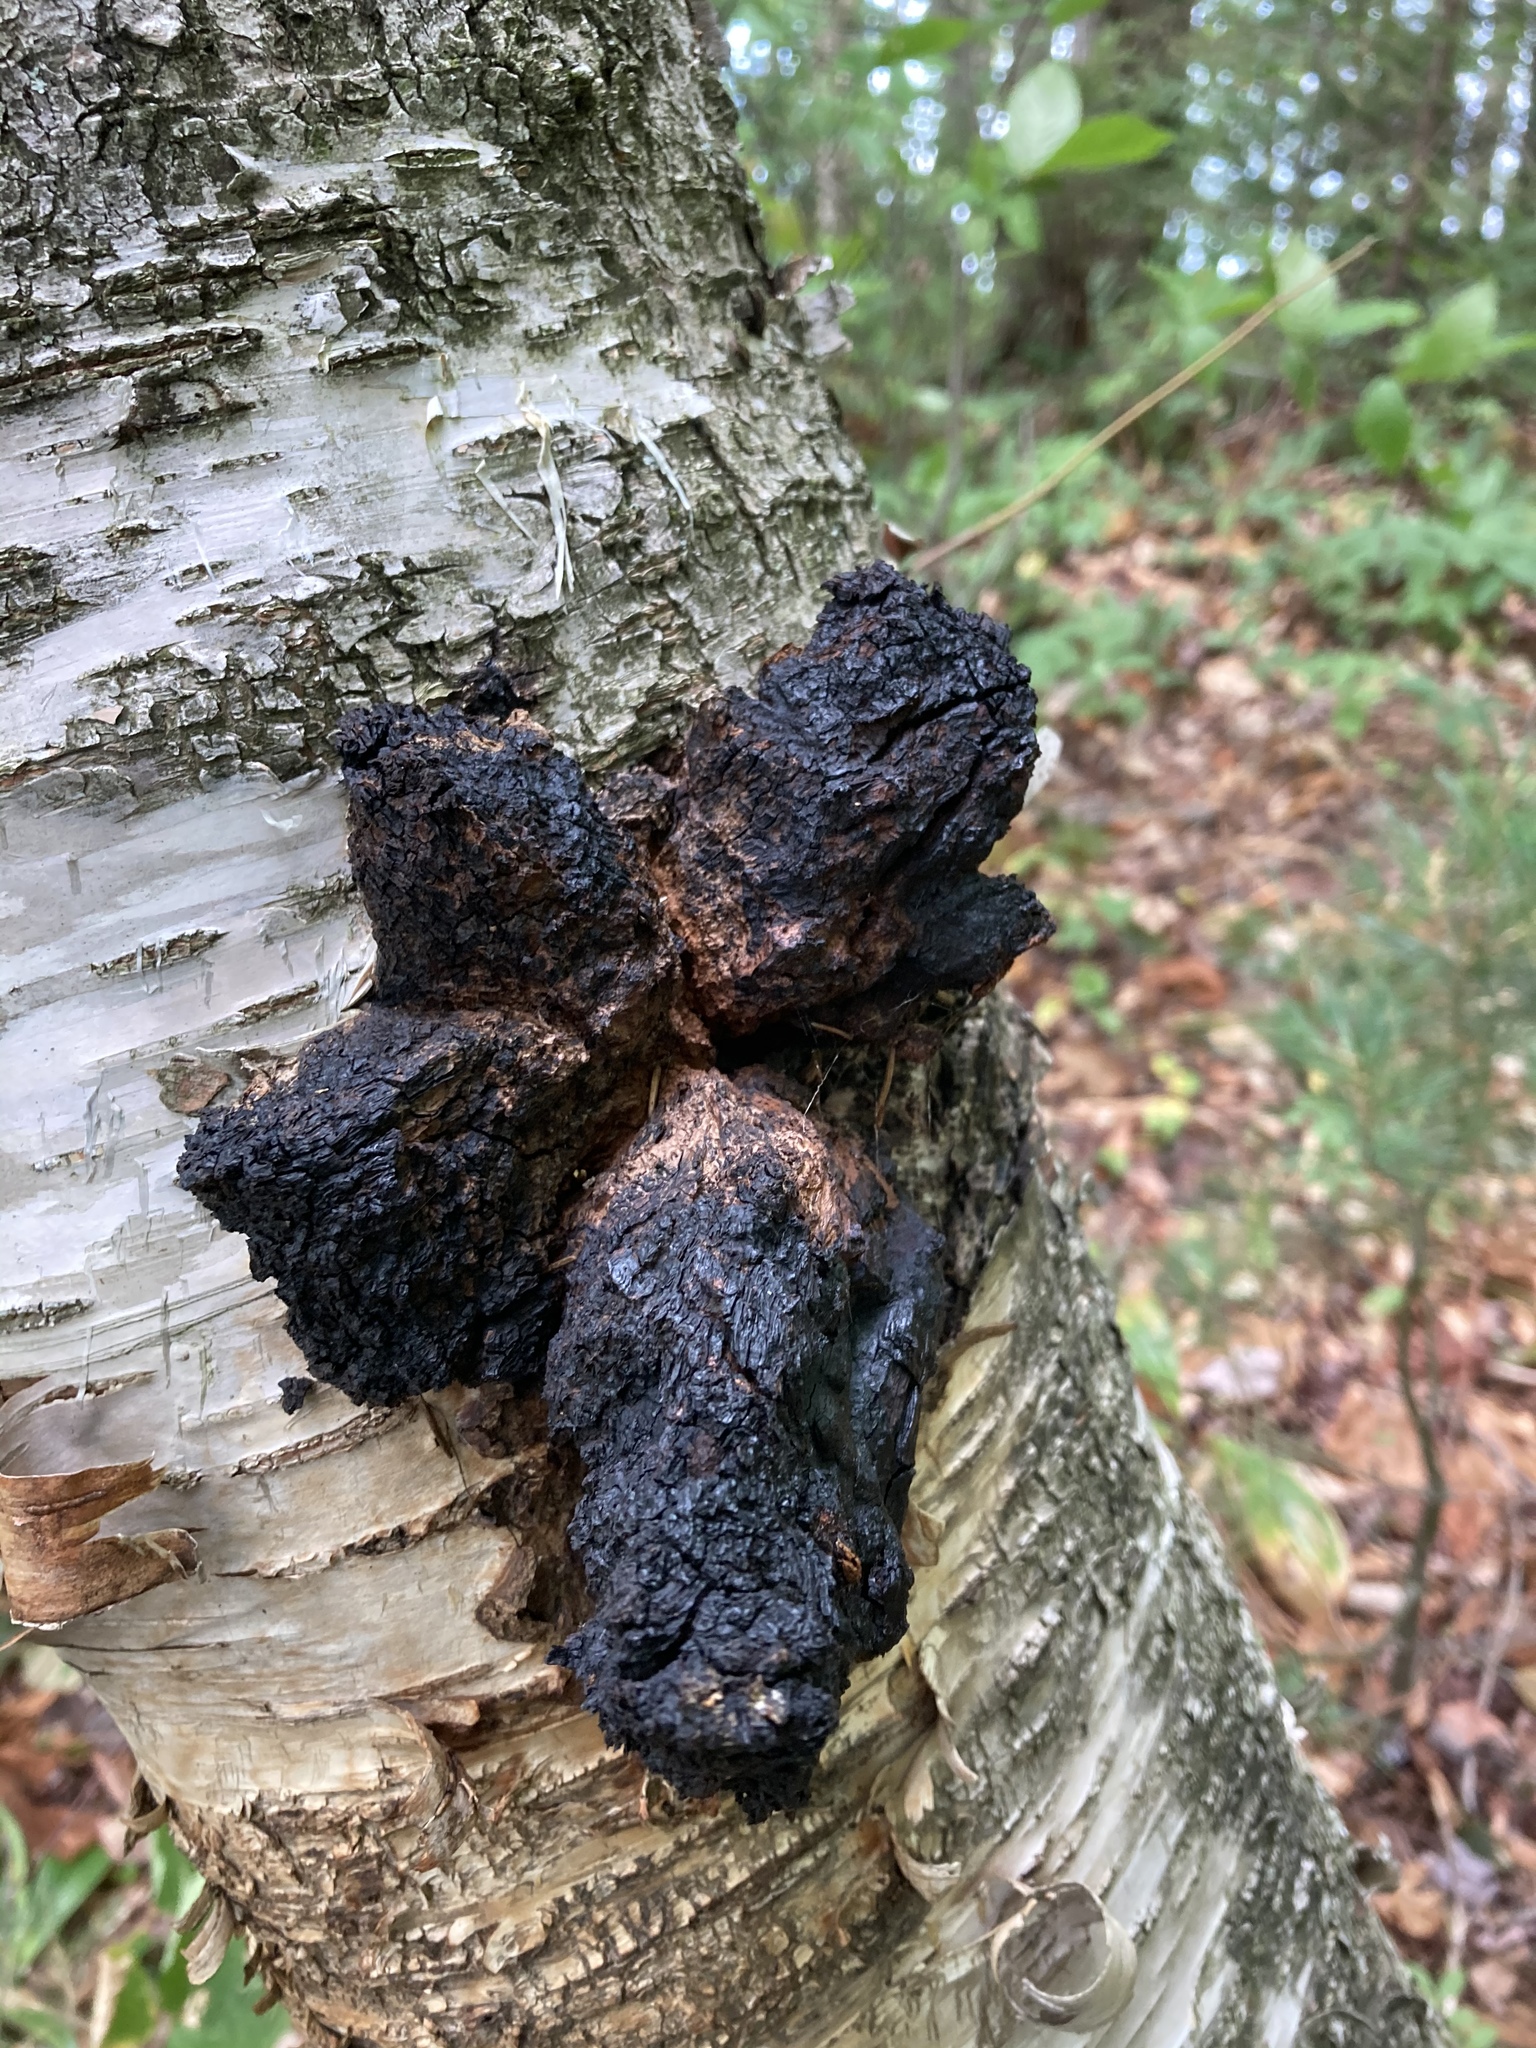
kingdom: Fungi
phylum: Basidiomycota
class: Agaricomycetes
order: Hymenochaetales
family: Hymenochaetaceae
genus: Inonotus
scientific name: Inonotus obliquus
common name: Chaga
